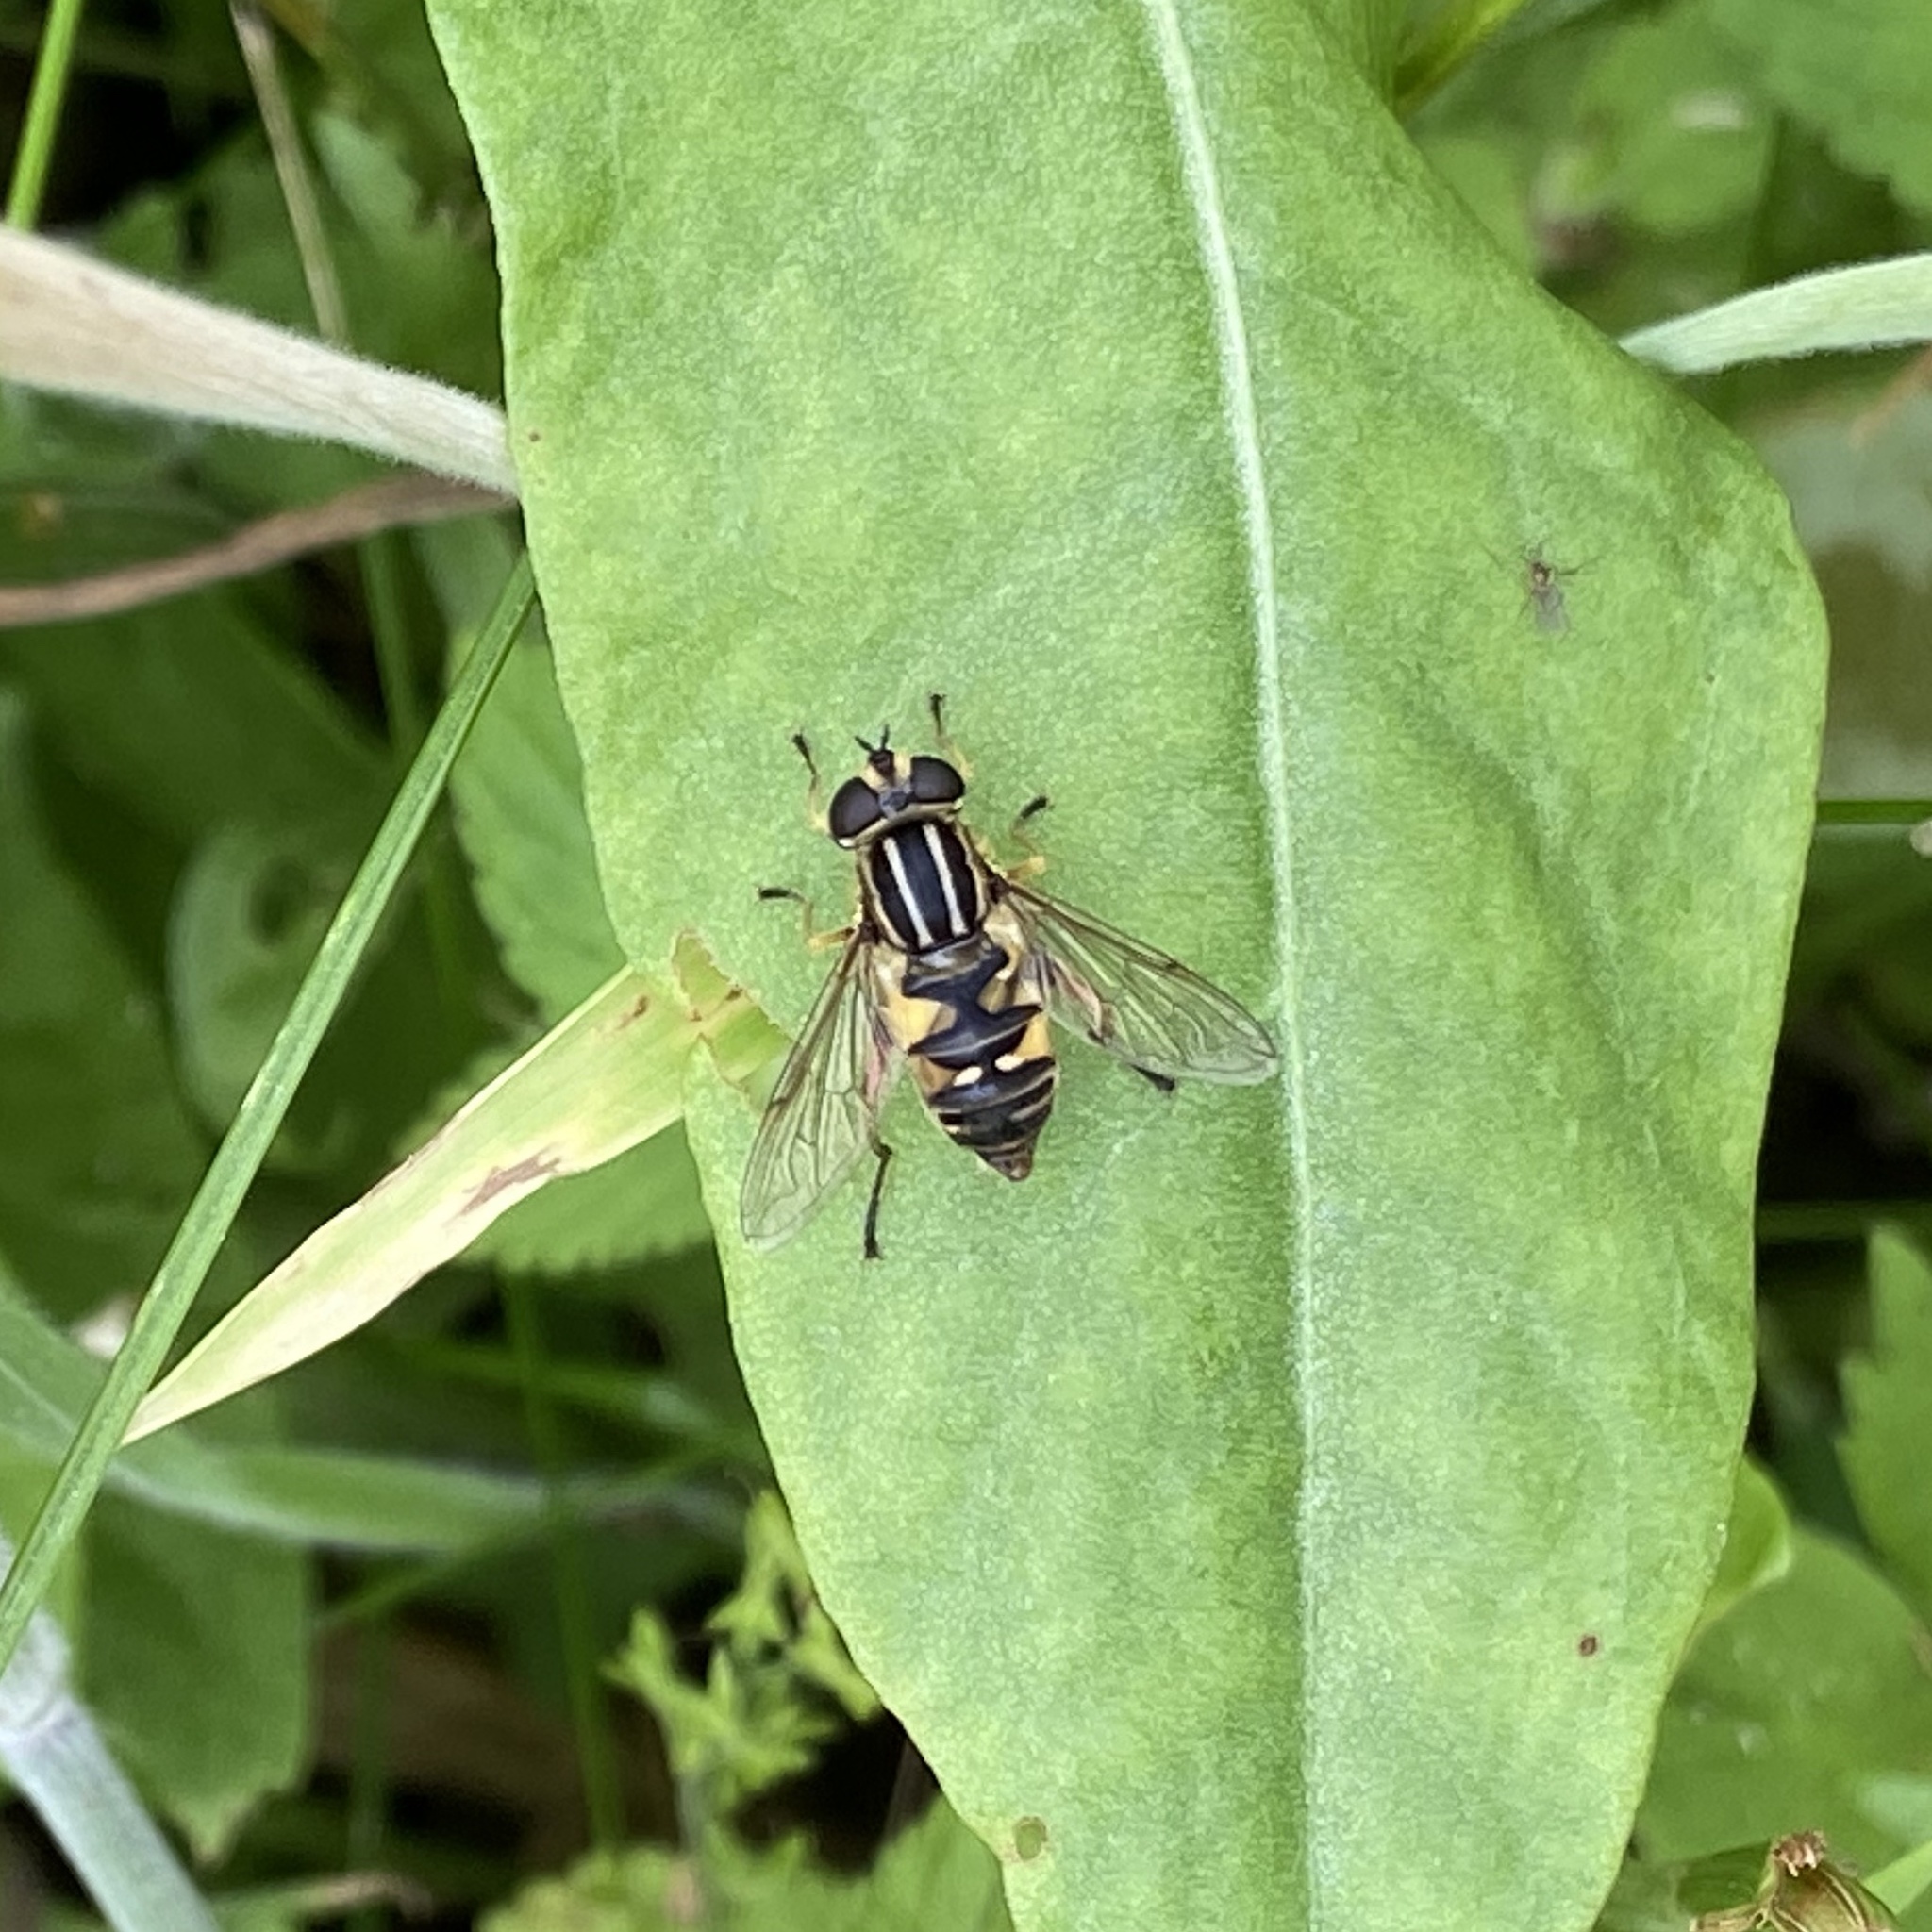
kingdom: Animalia
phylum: Arthropoda
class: Insecta
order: Diptera
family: Syrphidae
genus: Helophilus
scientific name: Helophilus pendulus
